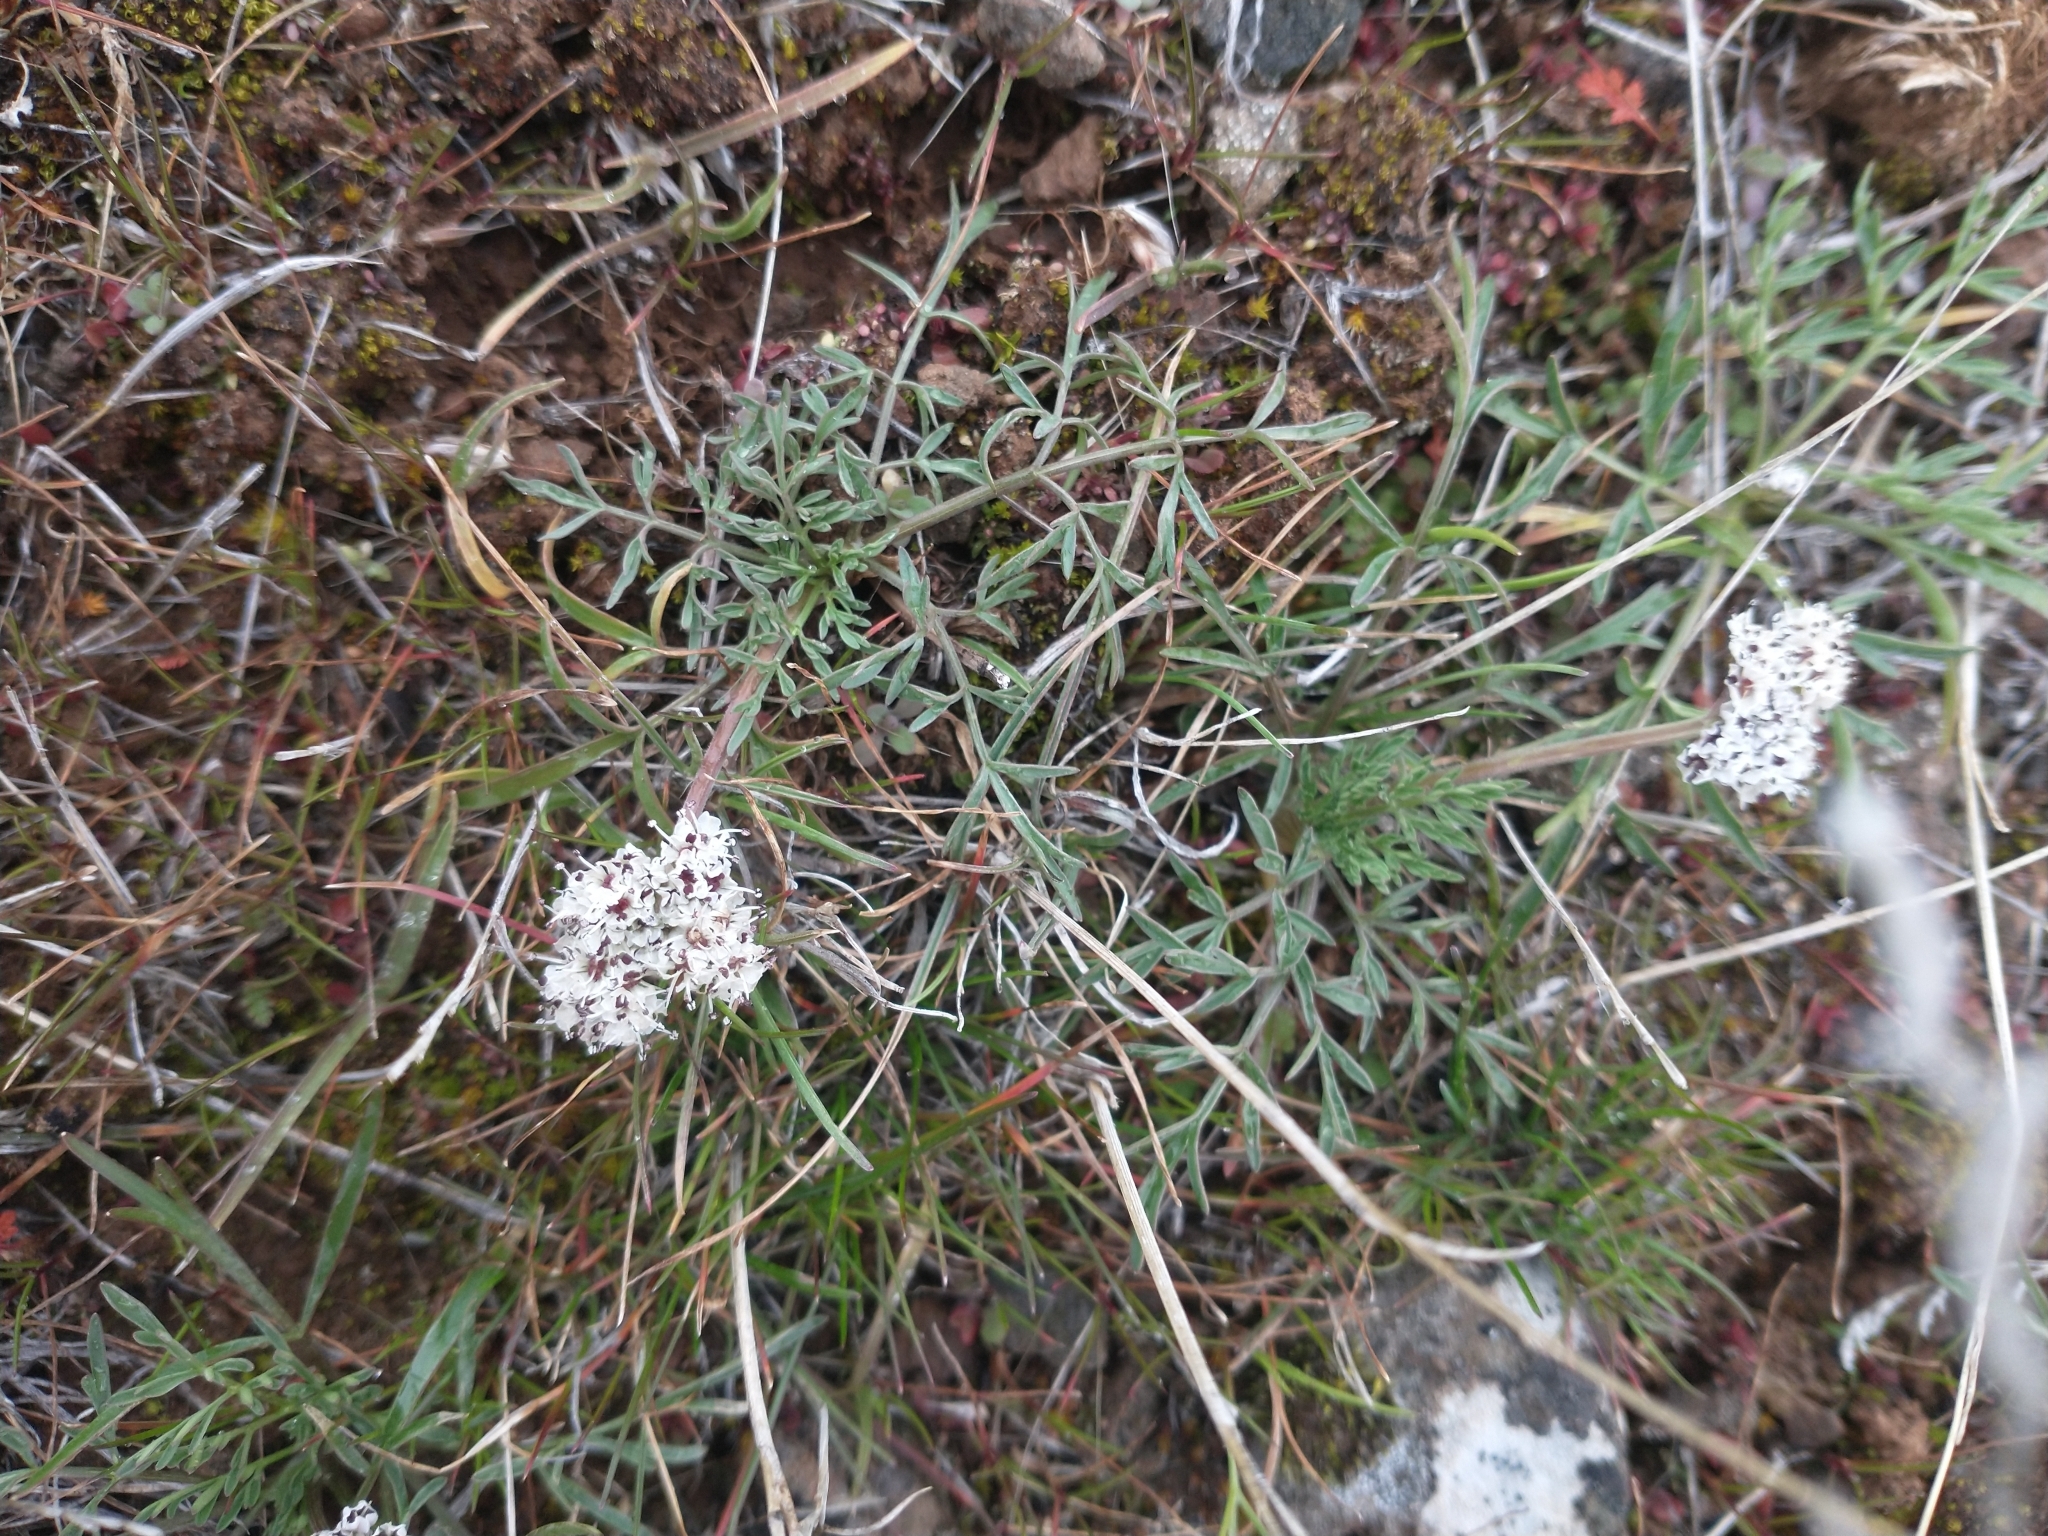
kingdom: Plantae
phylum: Tracheophyta
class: Magnoliopsida
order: Apiales
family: Apiaceae
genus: Lomatium
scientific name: Lomatium gormanii
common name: Gorman's biscuitroot
